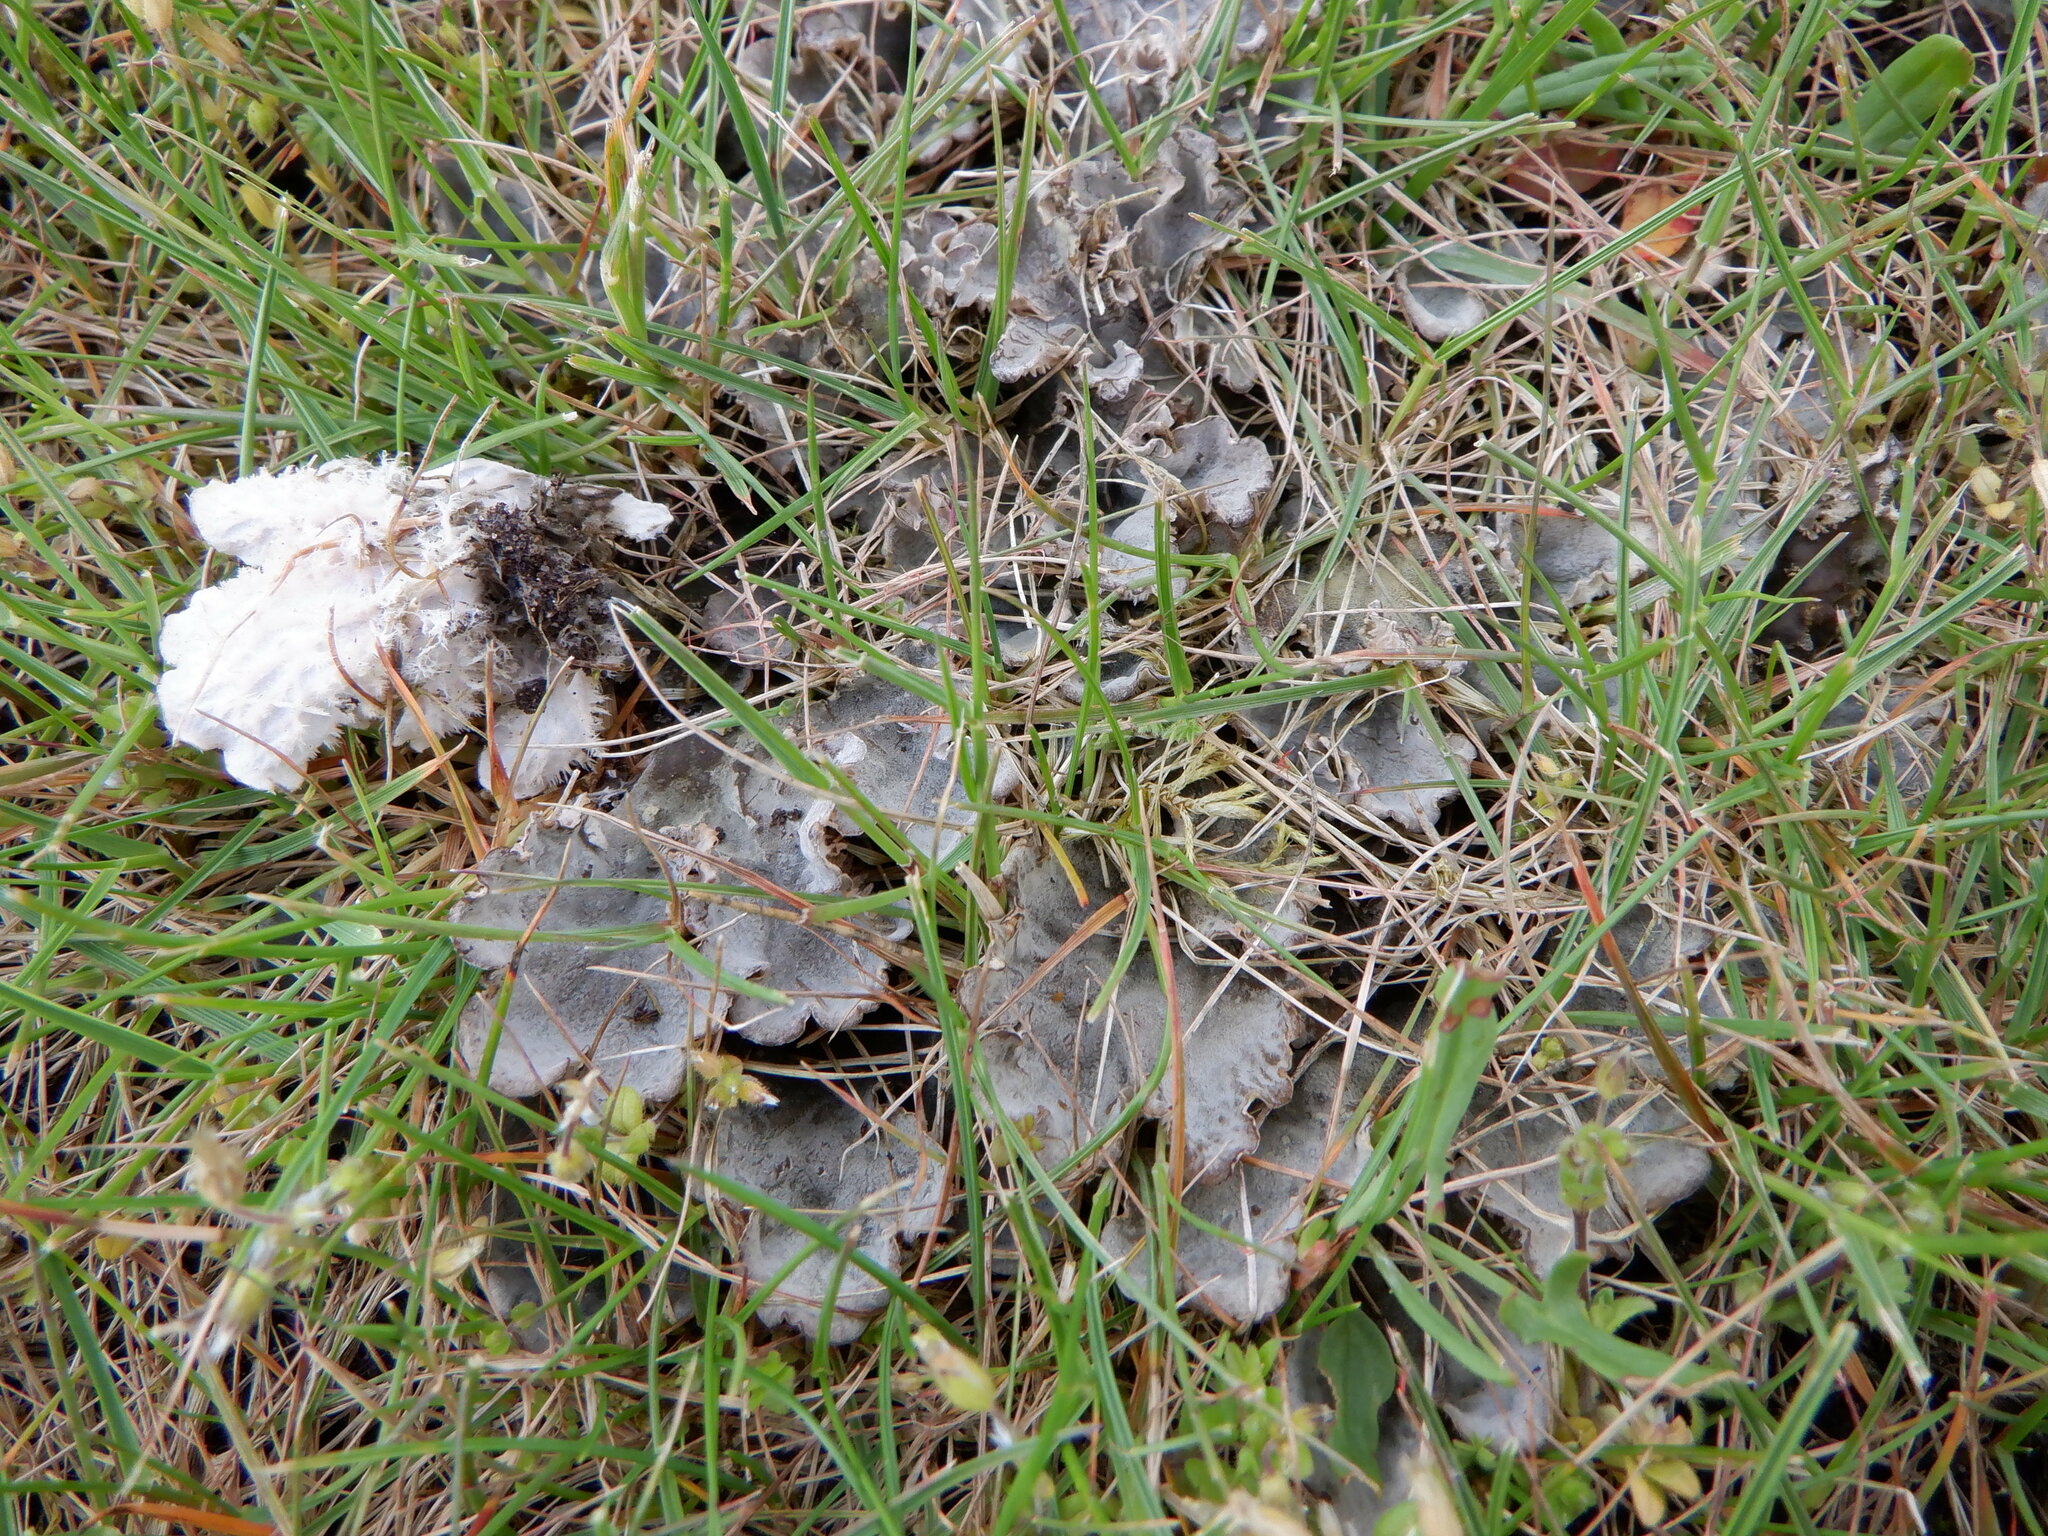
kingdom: Fungi
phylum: Ascomycota
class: Lecanoromycetes
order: Peltigerales
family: Peltigeraceae
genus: Peltigera
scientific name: Peltigera canina
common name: Dog pelt lichen
